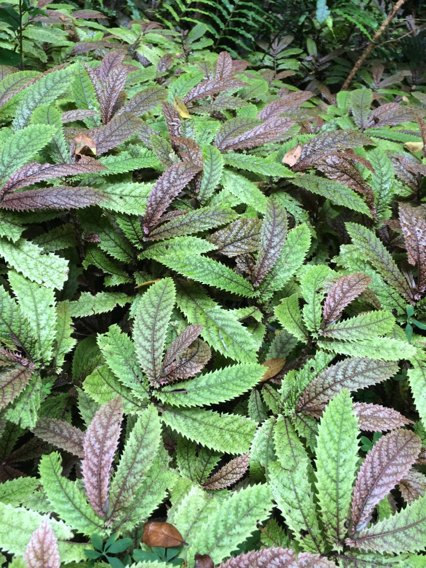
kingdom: Plantae
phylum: Tracheophyta
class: Magnoliopsida
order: Rosales
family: Urticaceae
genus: Elatostema
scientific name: Elatostema rugosum
